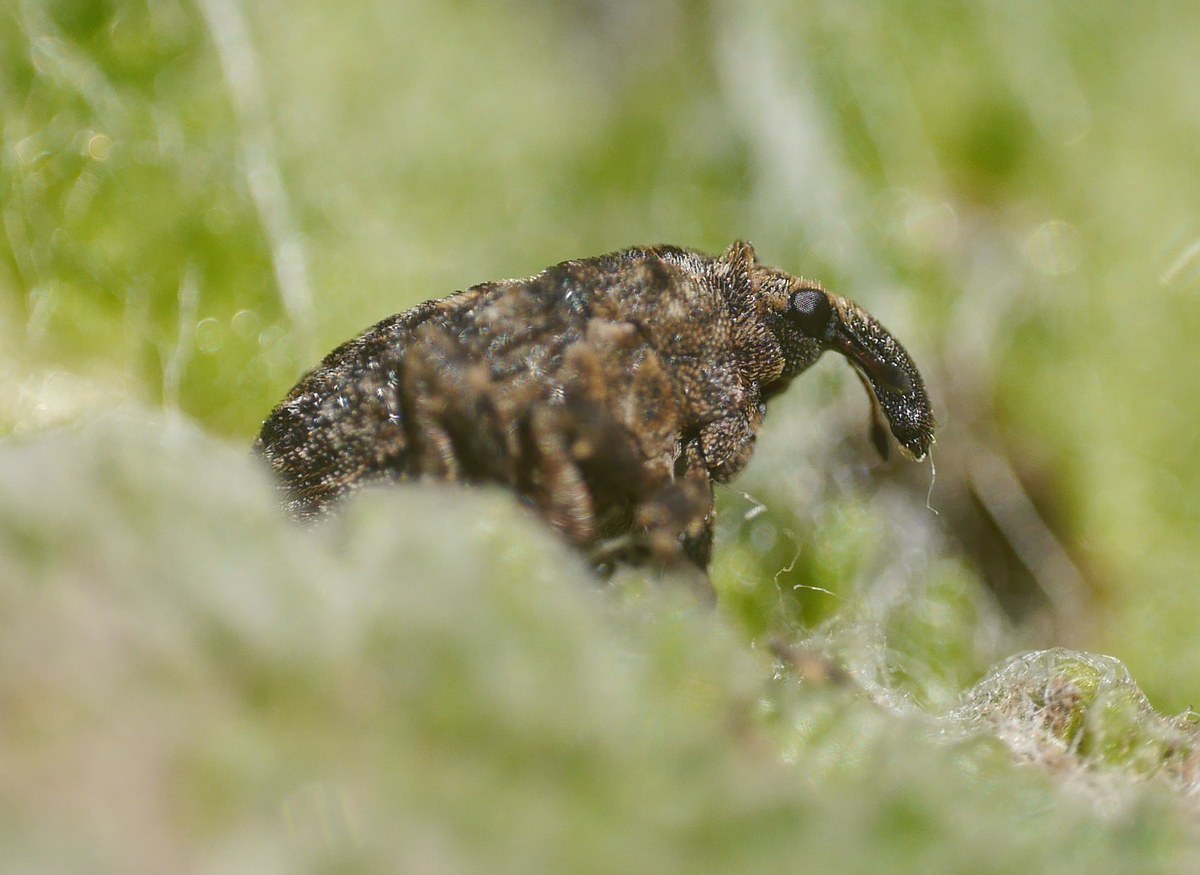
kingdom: Animalia
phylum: Arthropoda
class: Insecta
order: Coleoptera
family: Curculionidae
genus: Phrydiuchus
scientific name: Phrydiuchus tau
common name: Weevil
